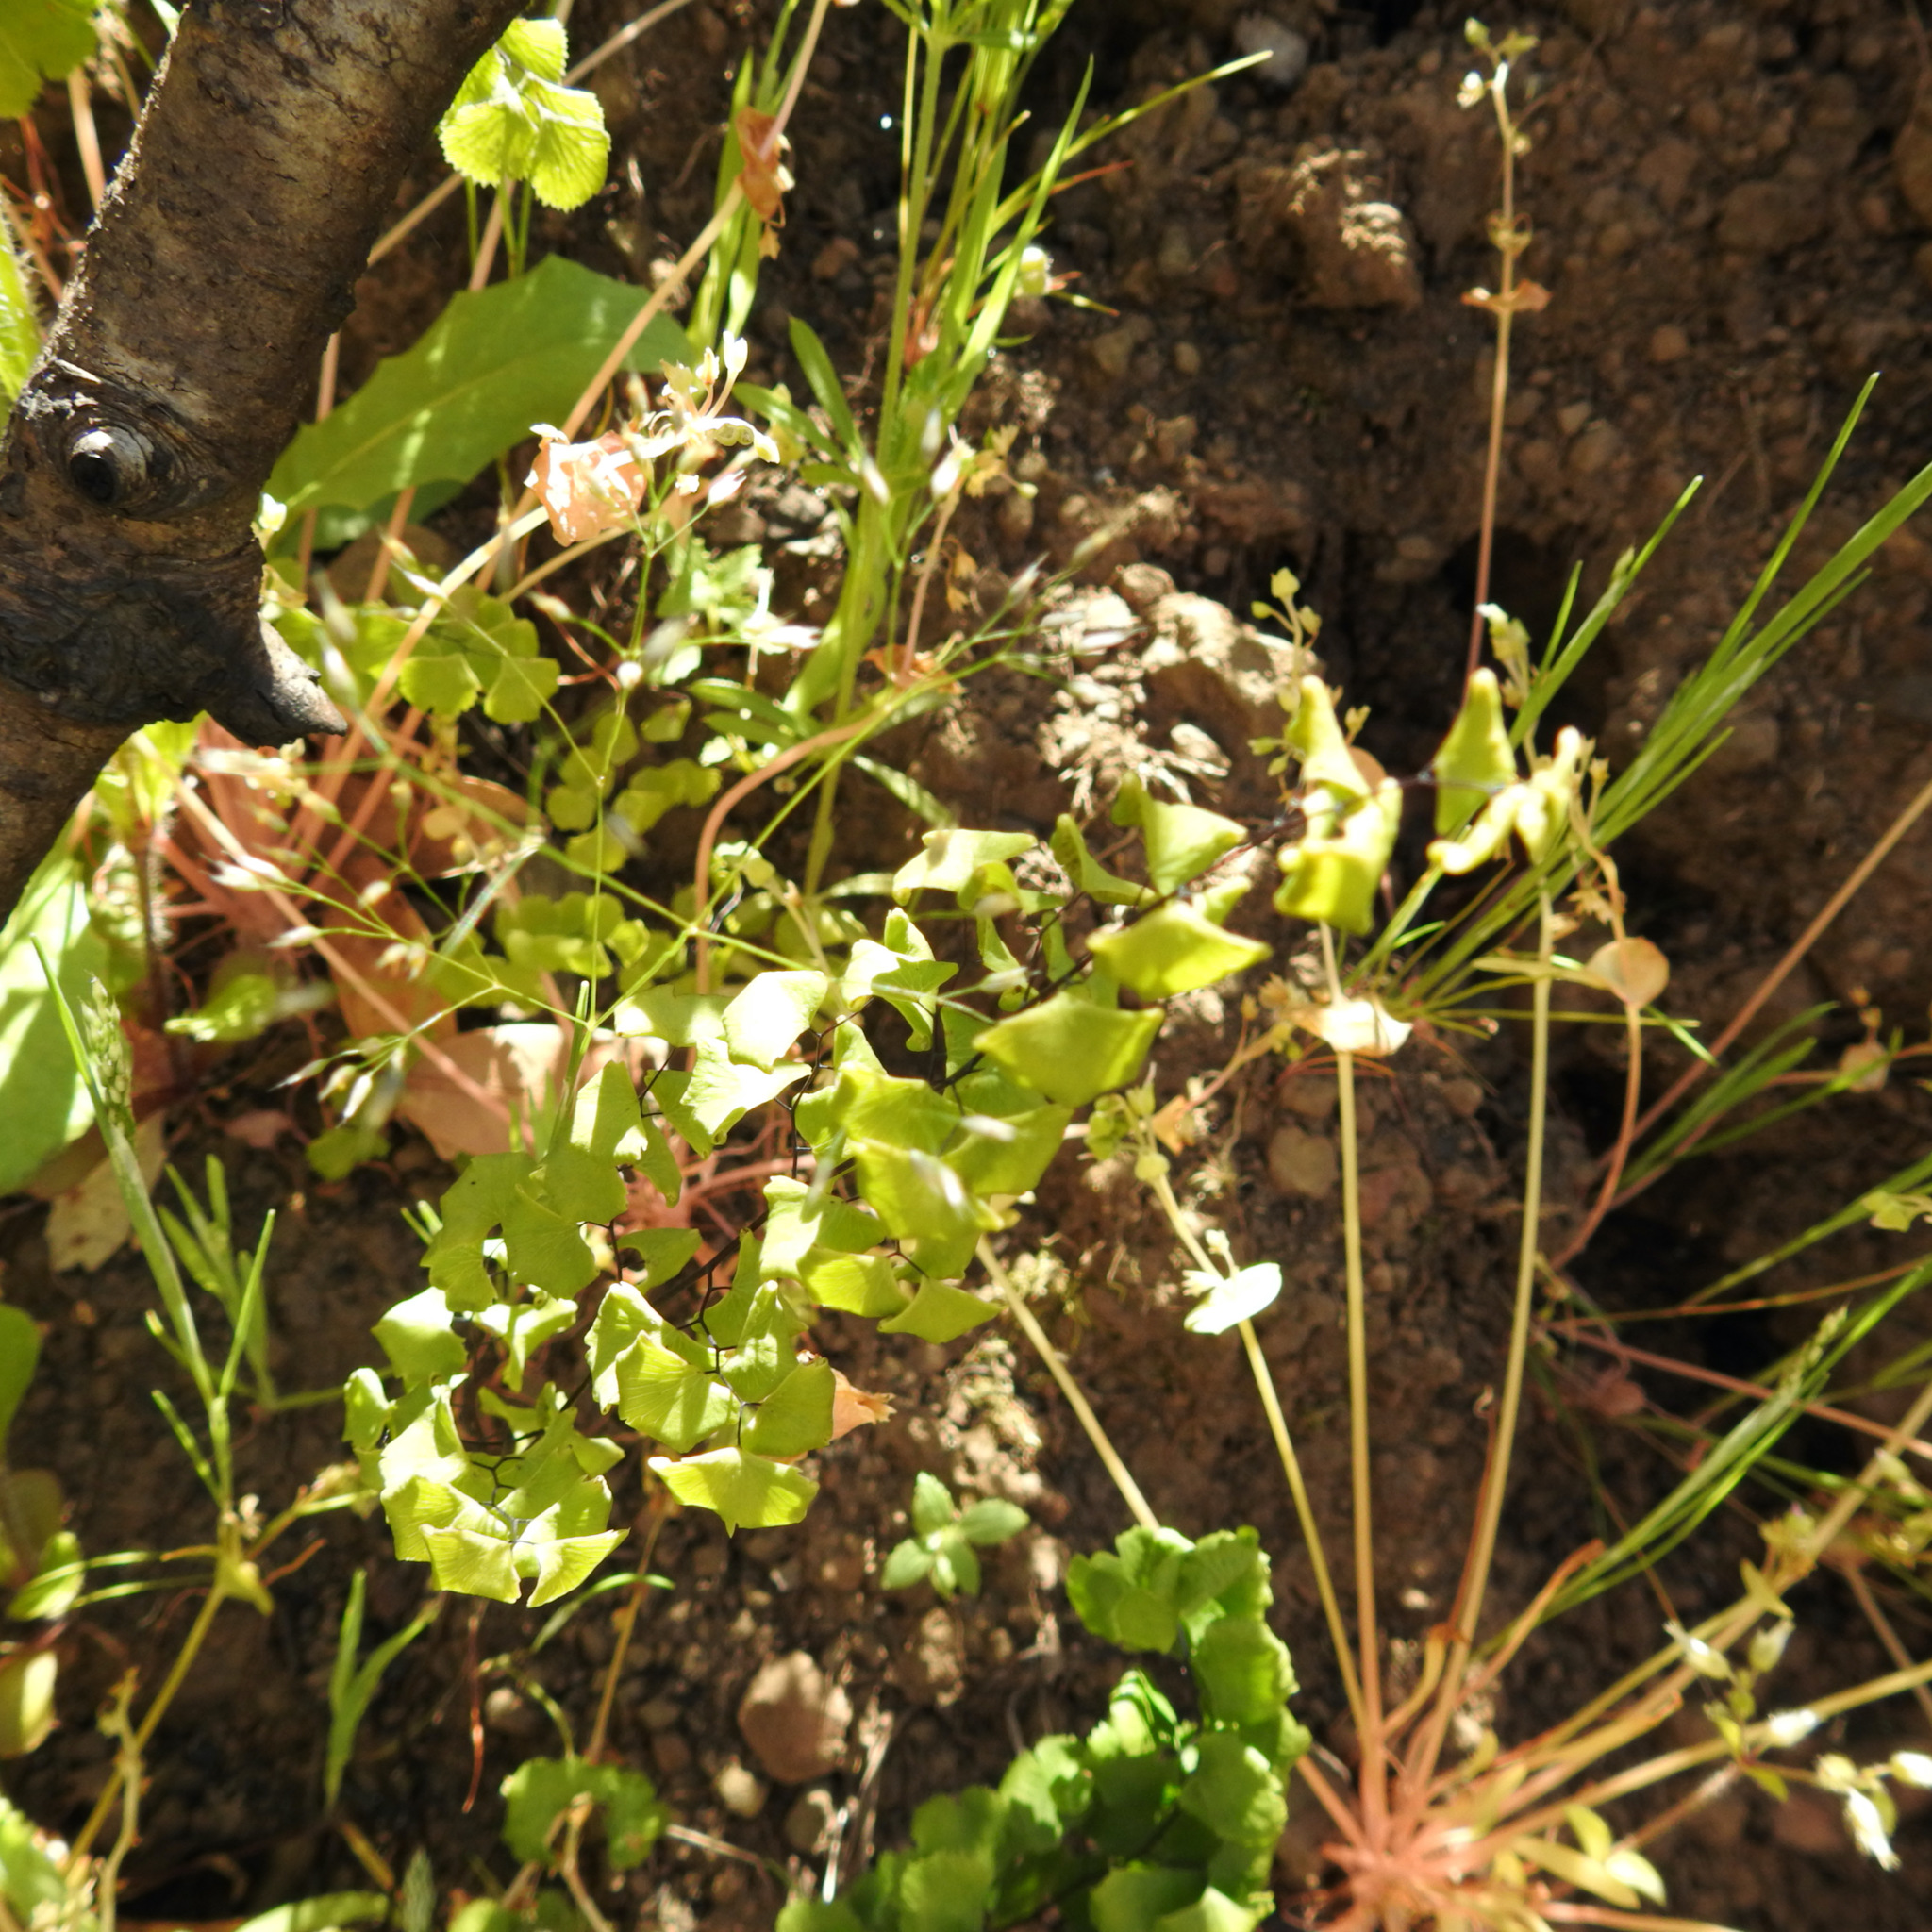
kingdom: Plantae
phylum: Tracheophyta
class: Polypodiopsida
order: Polypodiales
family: Pteridaceae
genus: Adiantum
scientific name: Adiantum jordanii
